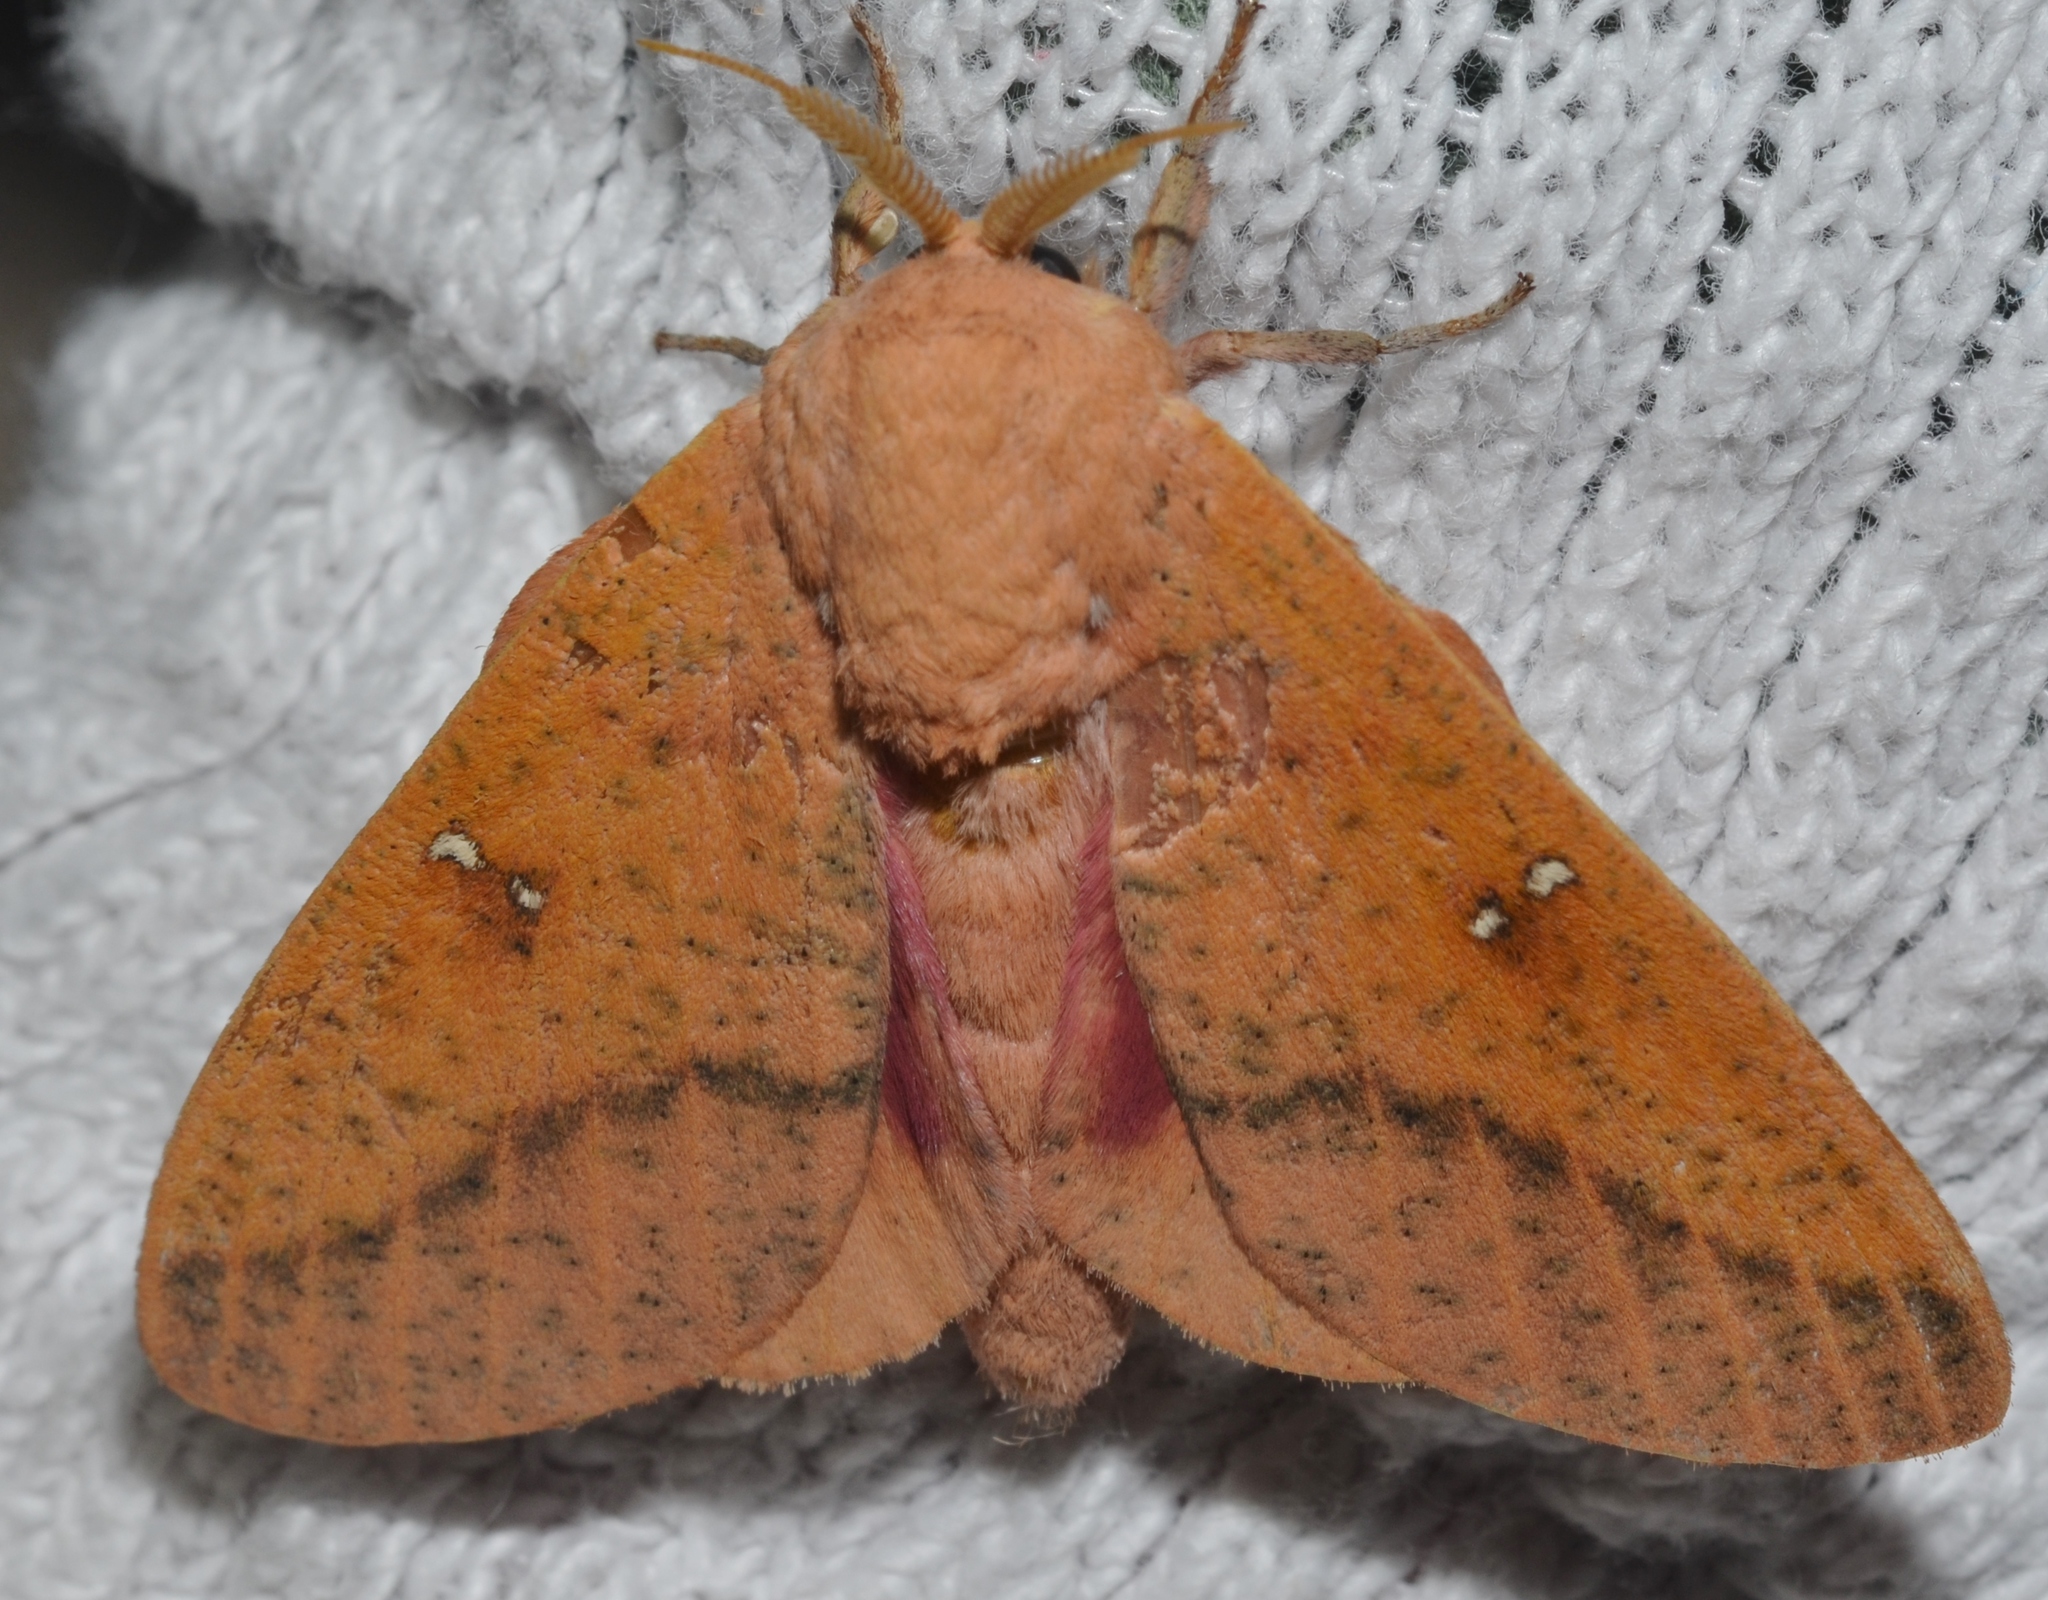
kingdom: Animalia
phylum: Arthropoda
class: Insecta
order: Lepidoptera
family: Saturniidae
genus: Syssphinx
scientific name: Syssphinx bicolor
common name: Honey locust moth
